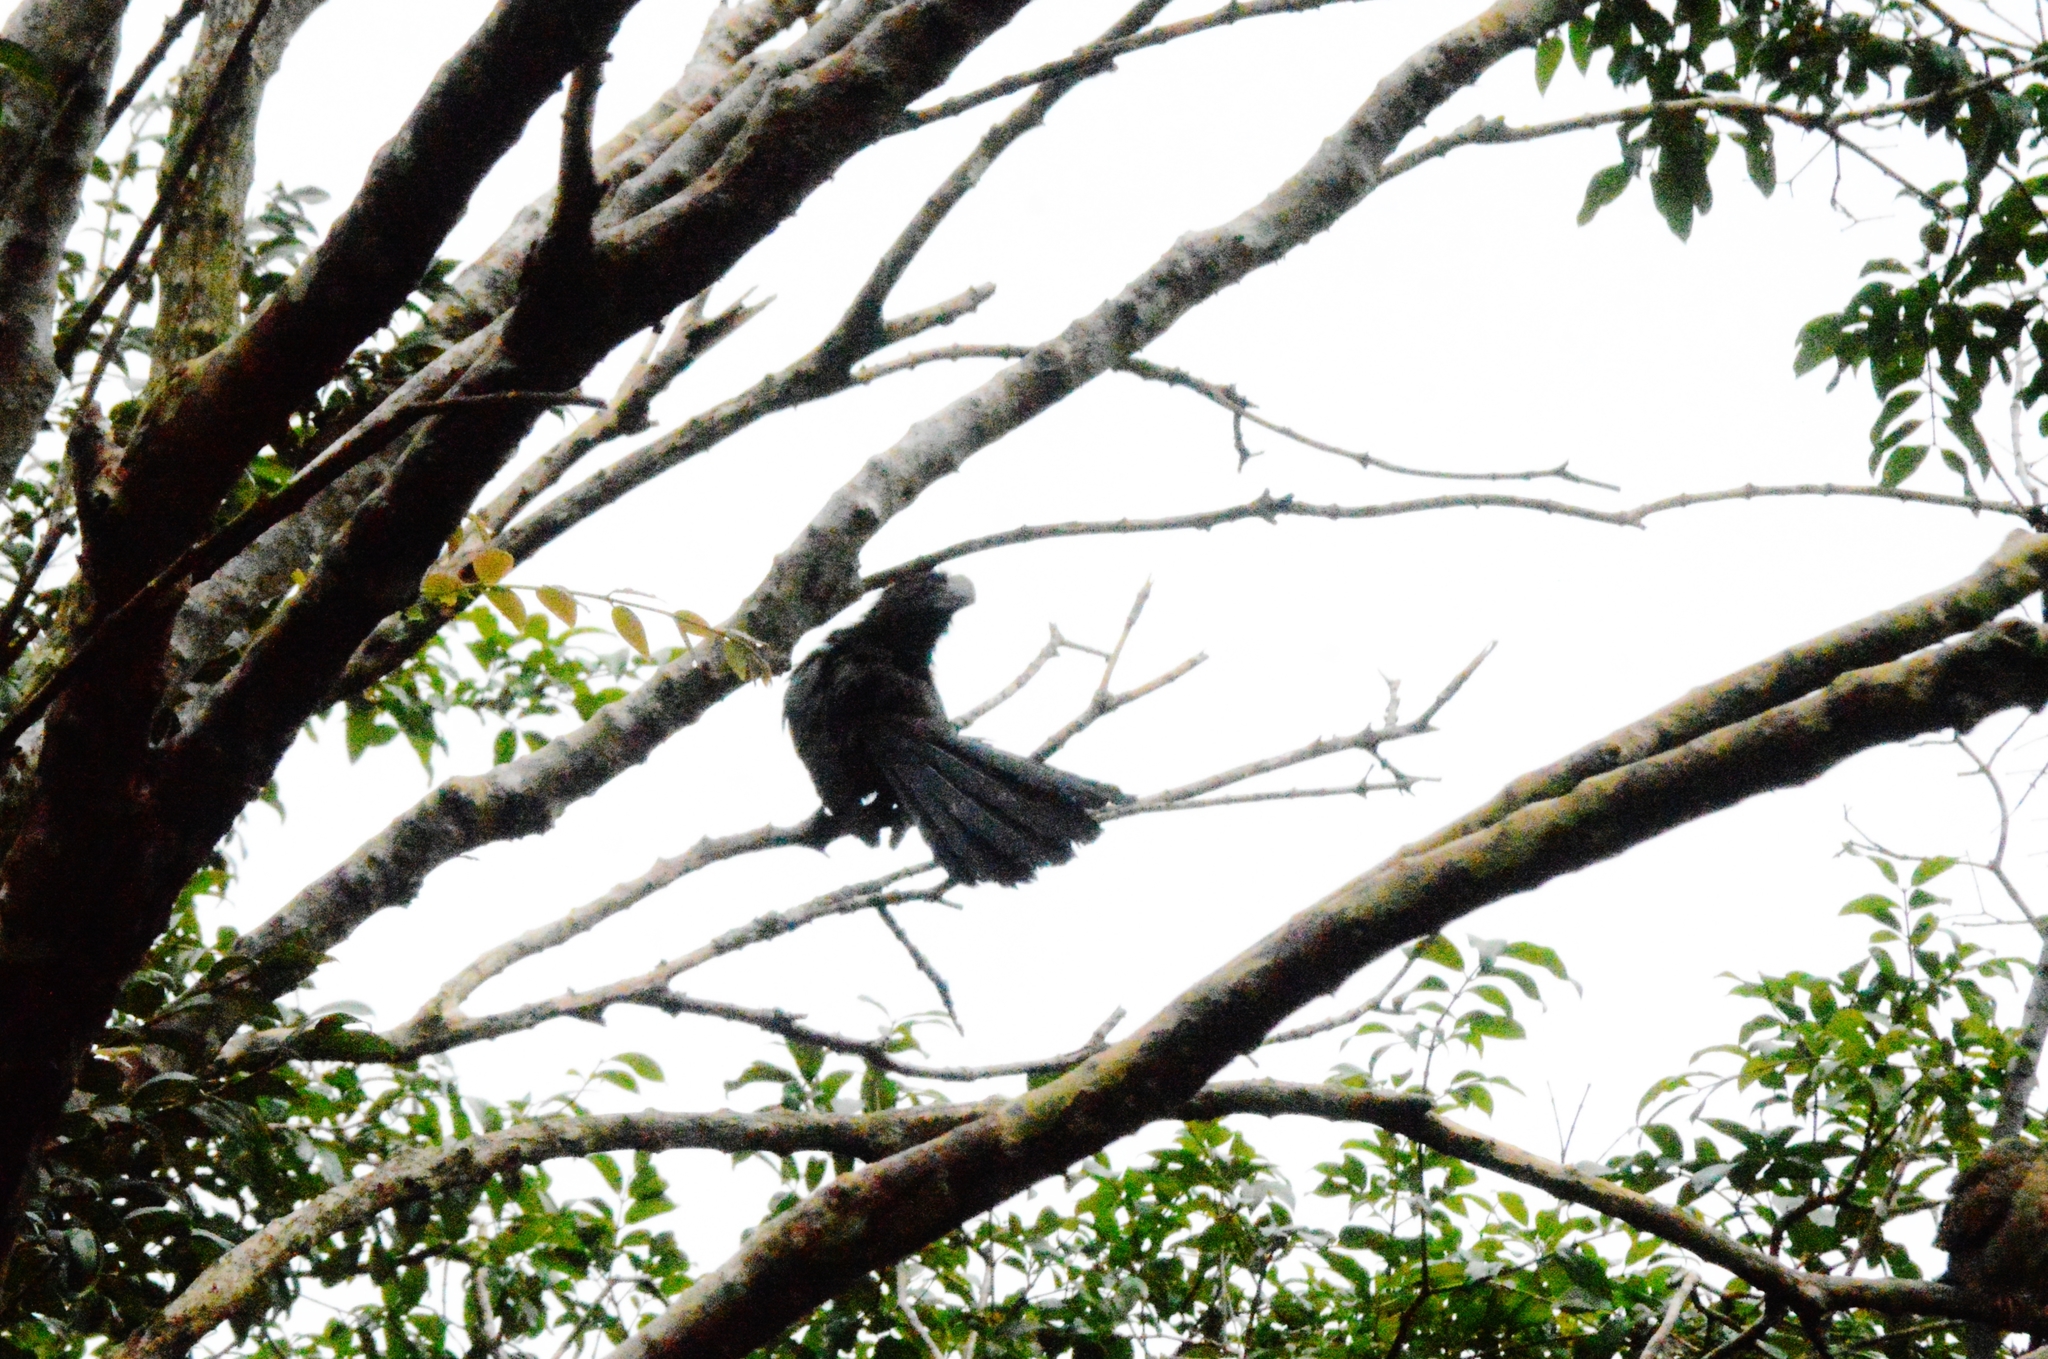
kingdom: Animalia
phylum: Chordata
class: Aves
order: Cuculiformes
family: Cuculidae
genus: Crotophaga
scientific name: Crotophaga ani
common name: Smooth-billed ani
